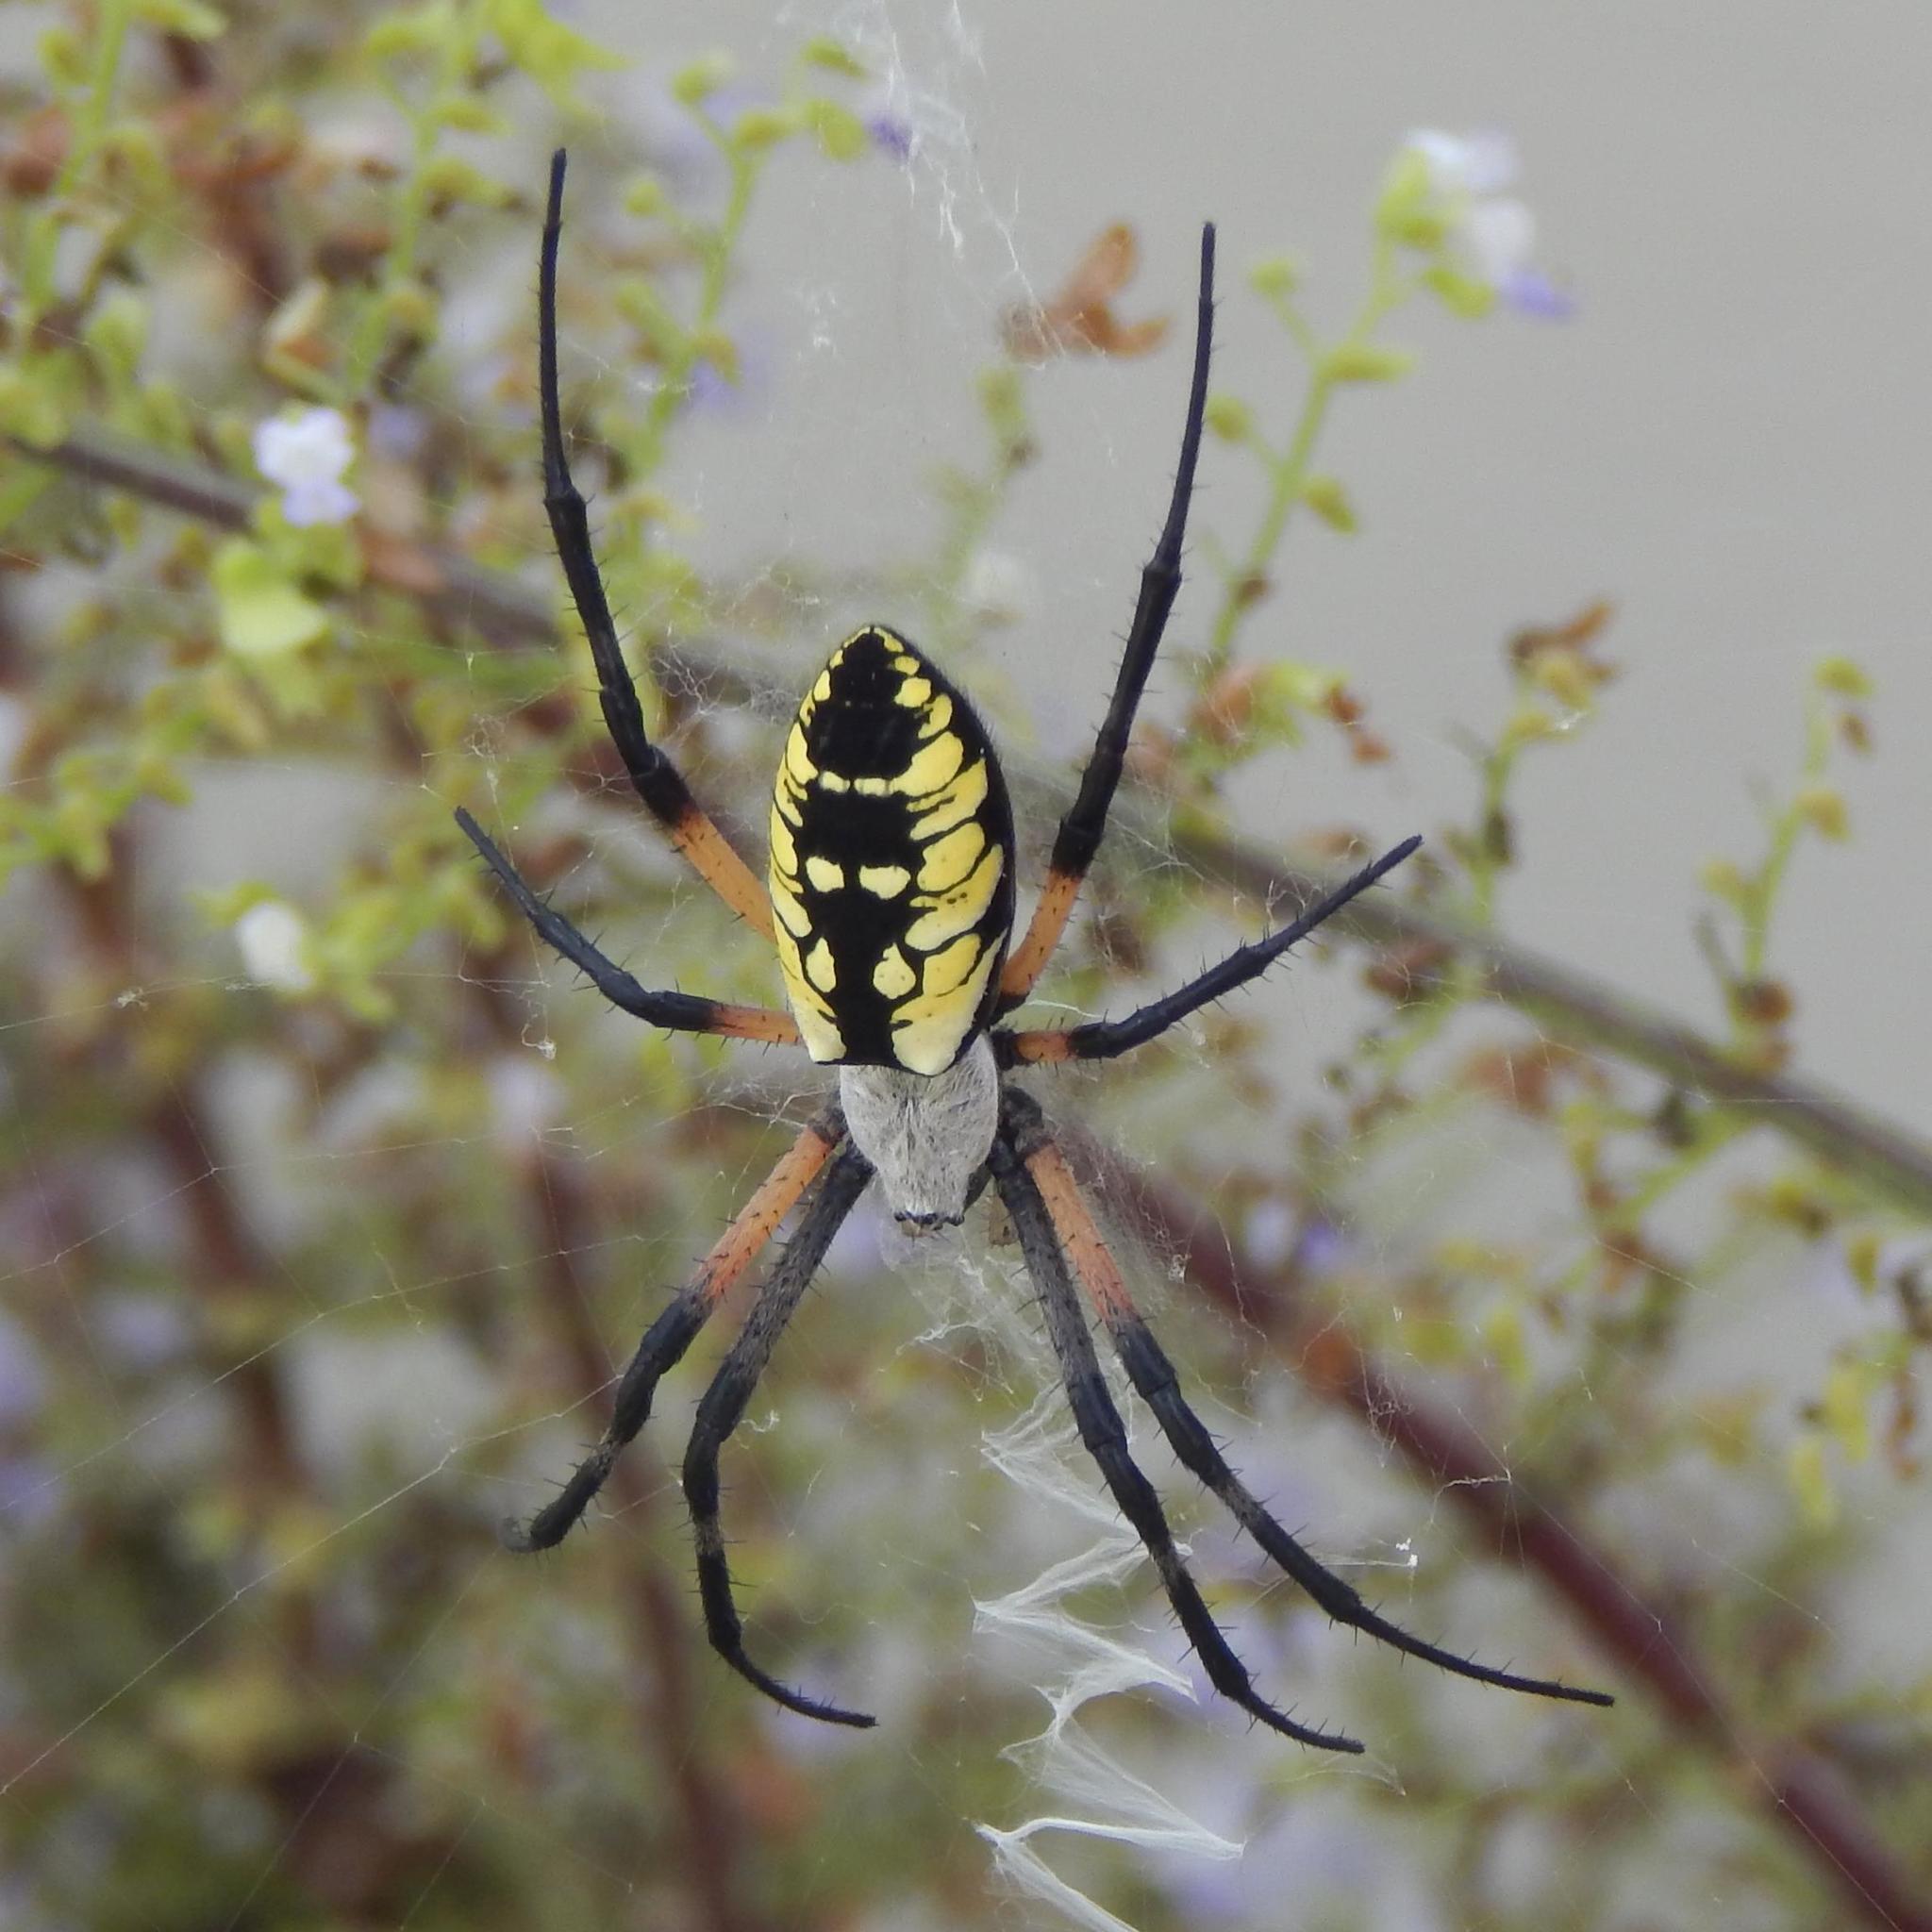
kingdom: Animalia
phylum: Arthropoda
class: Arachnida
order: Araneae
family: Araneidae
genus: Argiope
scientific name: Argiope aurantia
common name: Orb weavers
